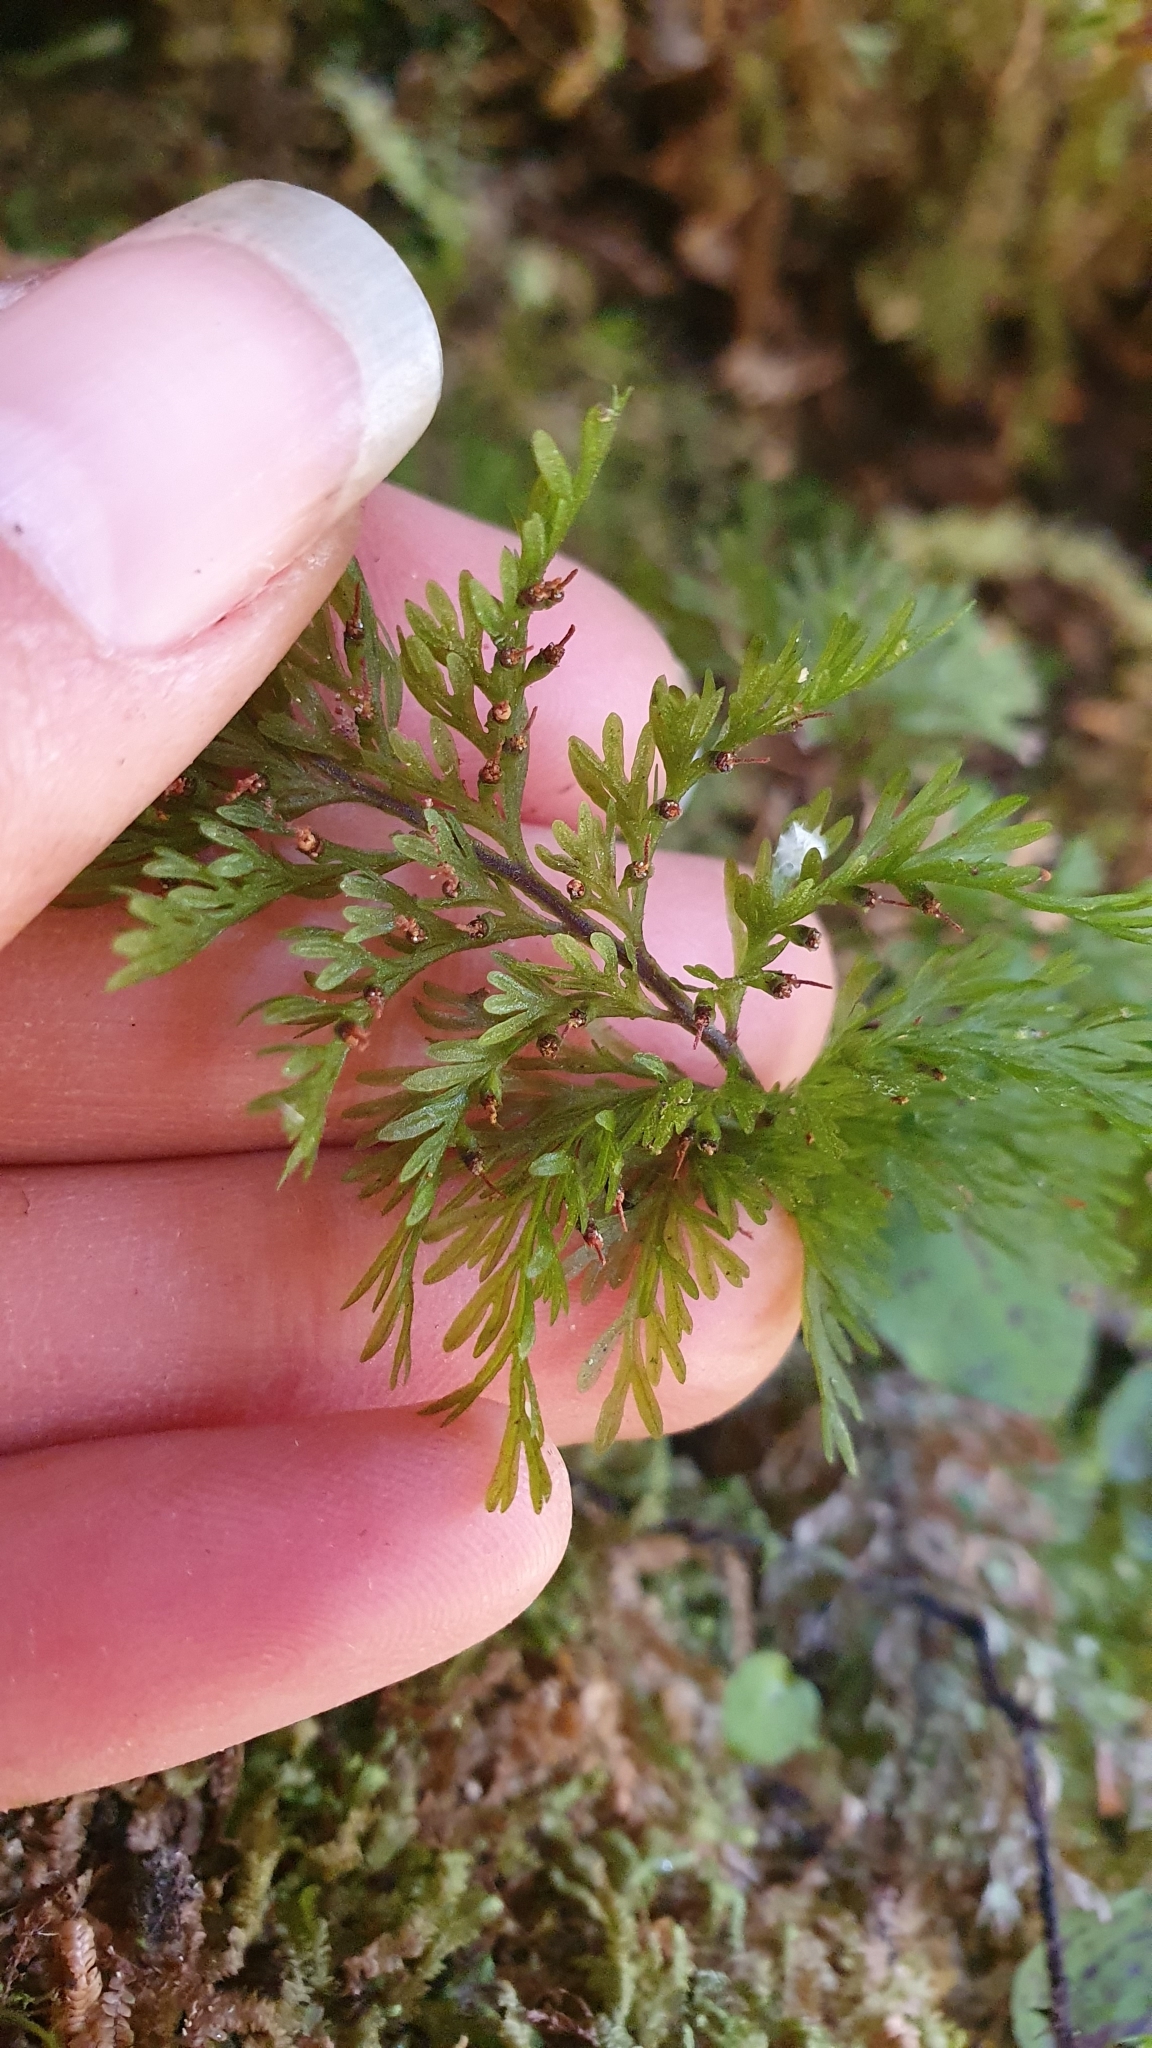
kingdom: Plantae
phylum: Tracheophyta
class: Polypodiopsida
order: Hymenophyllales
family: Hymenophyllaceae
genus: Abrodictyum
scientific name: Abrodictyum strictum
